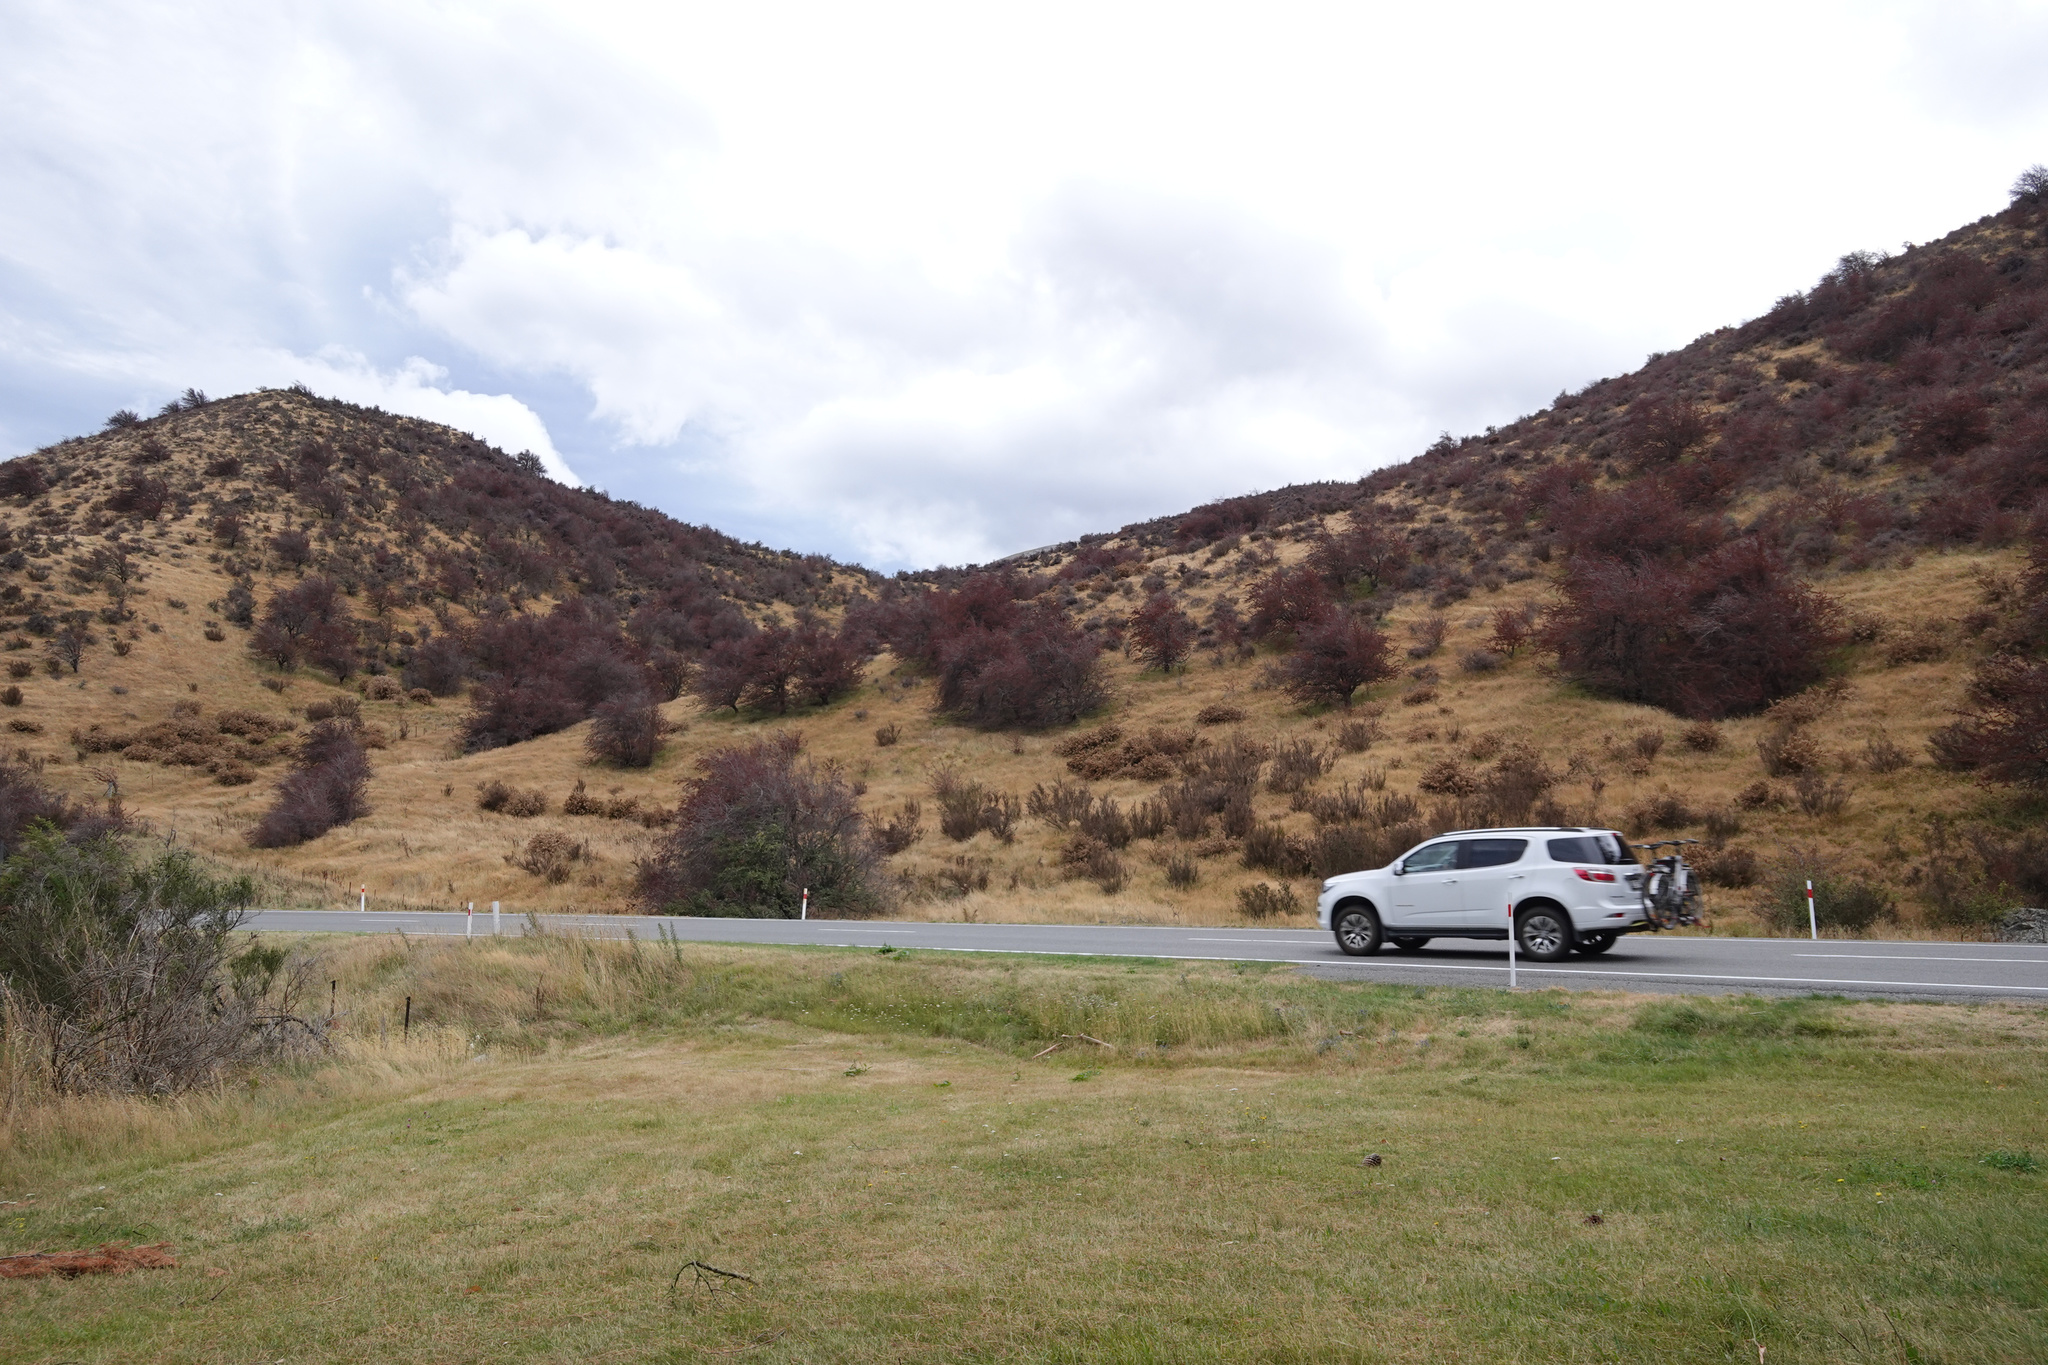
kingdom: Plantae
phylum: Tracheophyta
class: Magnoliopsida
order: Rosales
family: Rosaceae
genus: Crataegus
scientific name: Crataegus monogyna
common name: Hawthorn
